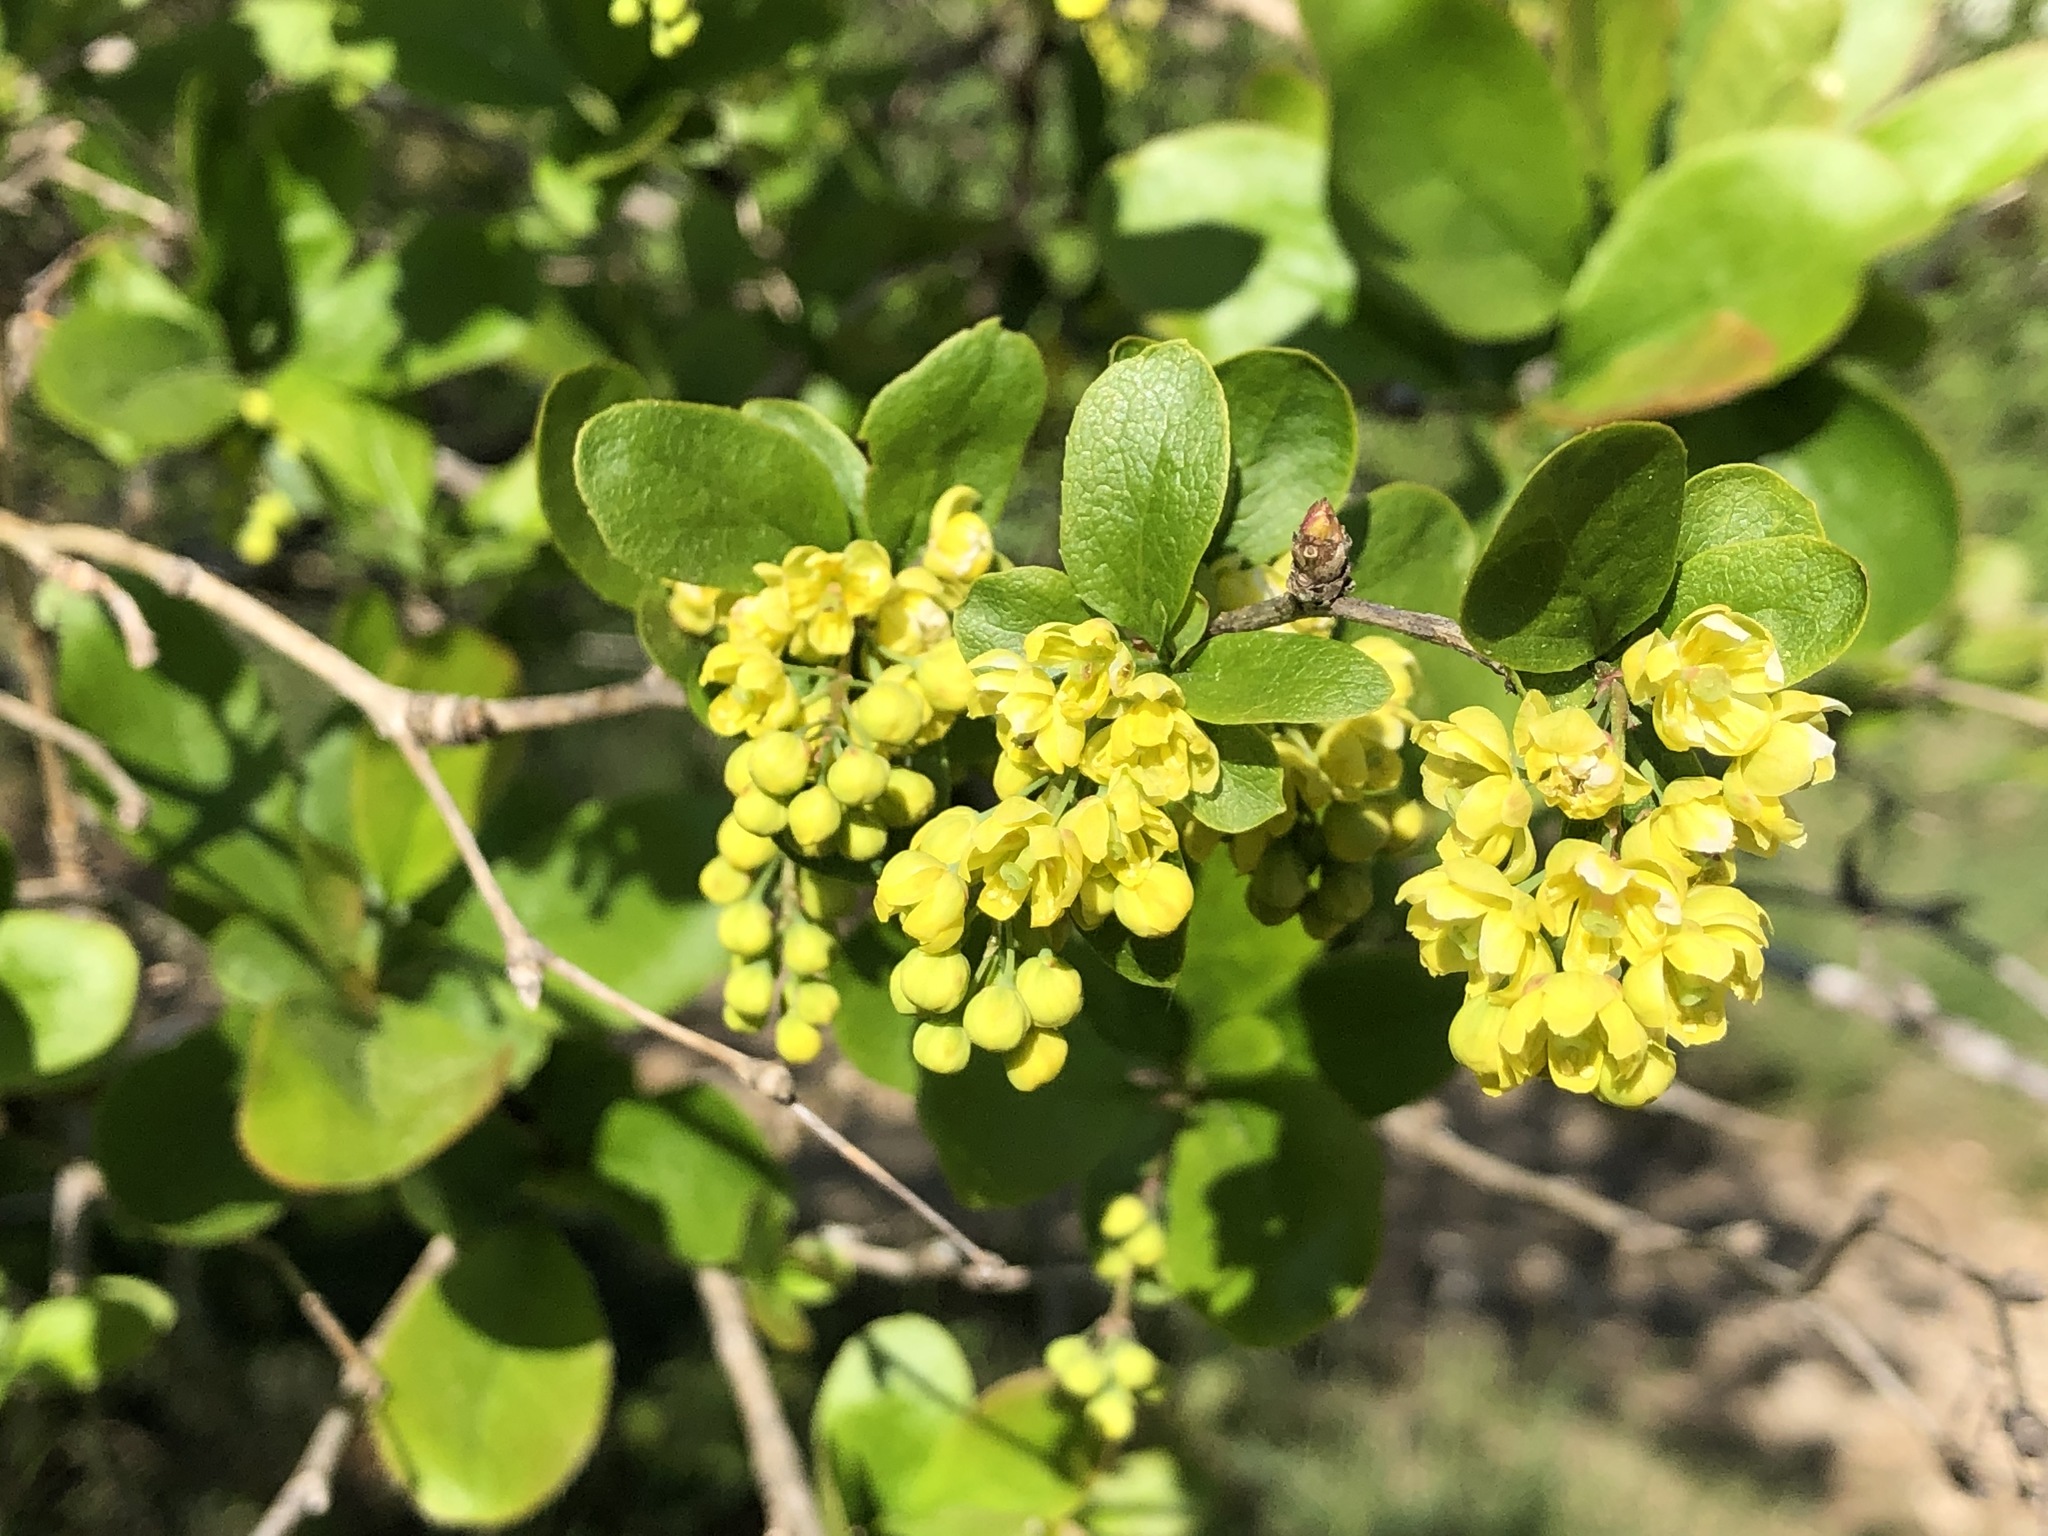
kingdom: Plantae
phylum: Tracheophyta
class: Magnoliopsida
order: Ranunculales
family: Berberidaceae
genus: Berberis
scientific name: Berberis vulgaris
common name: Barberry
